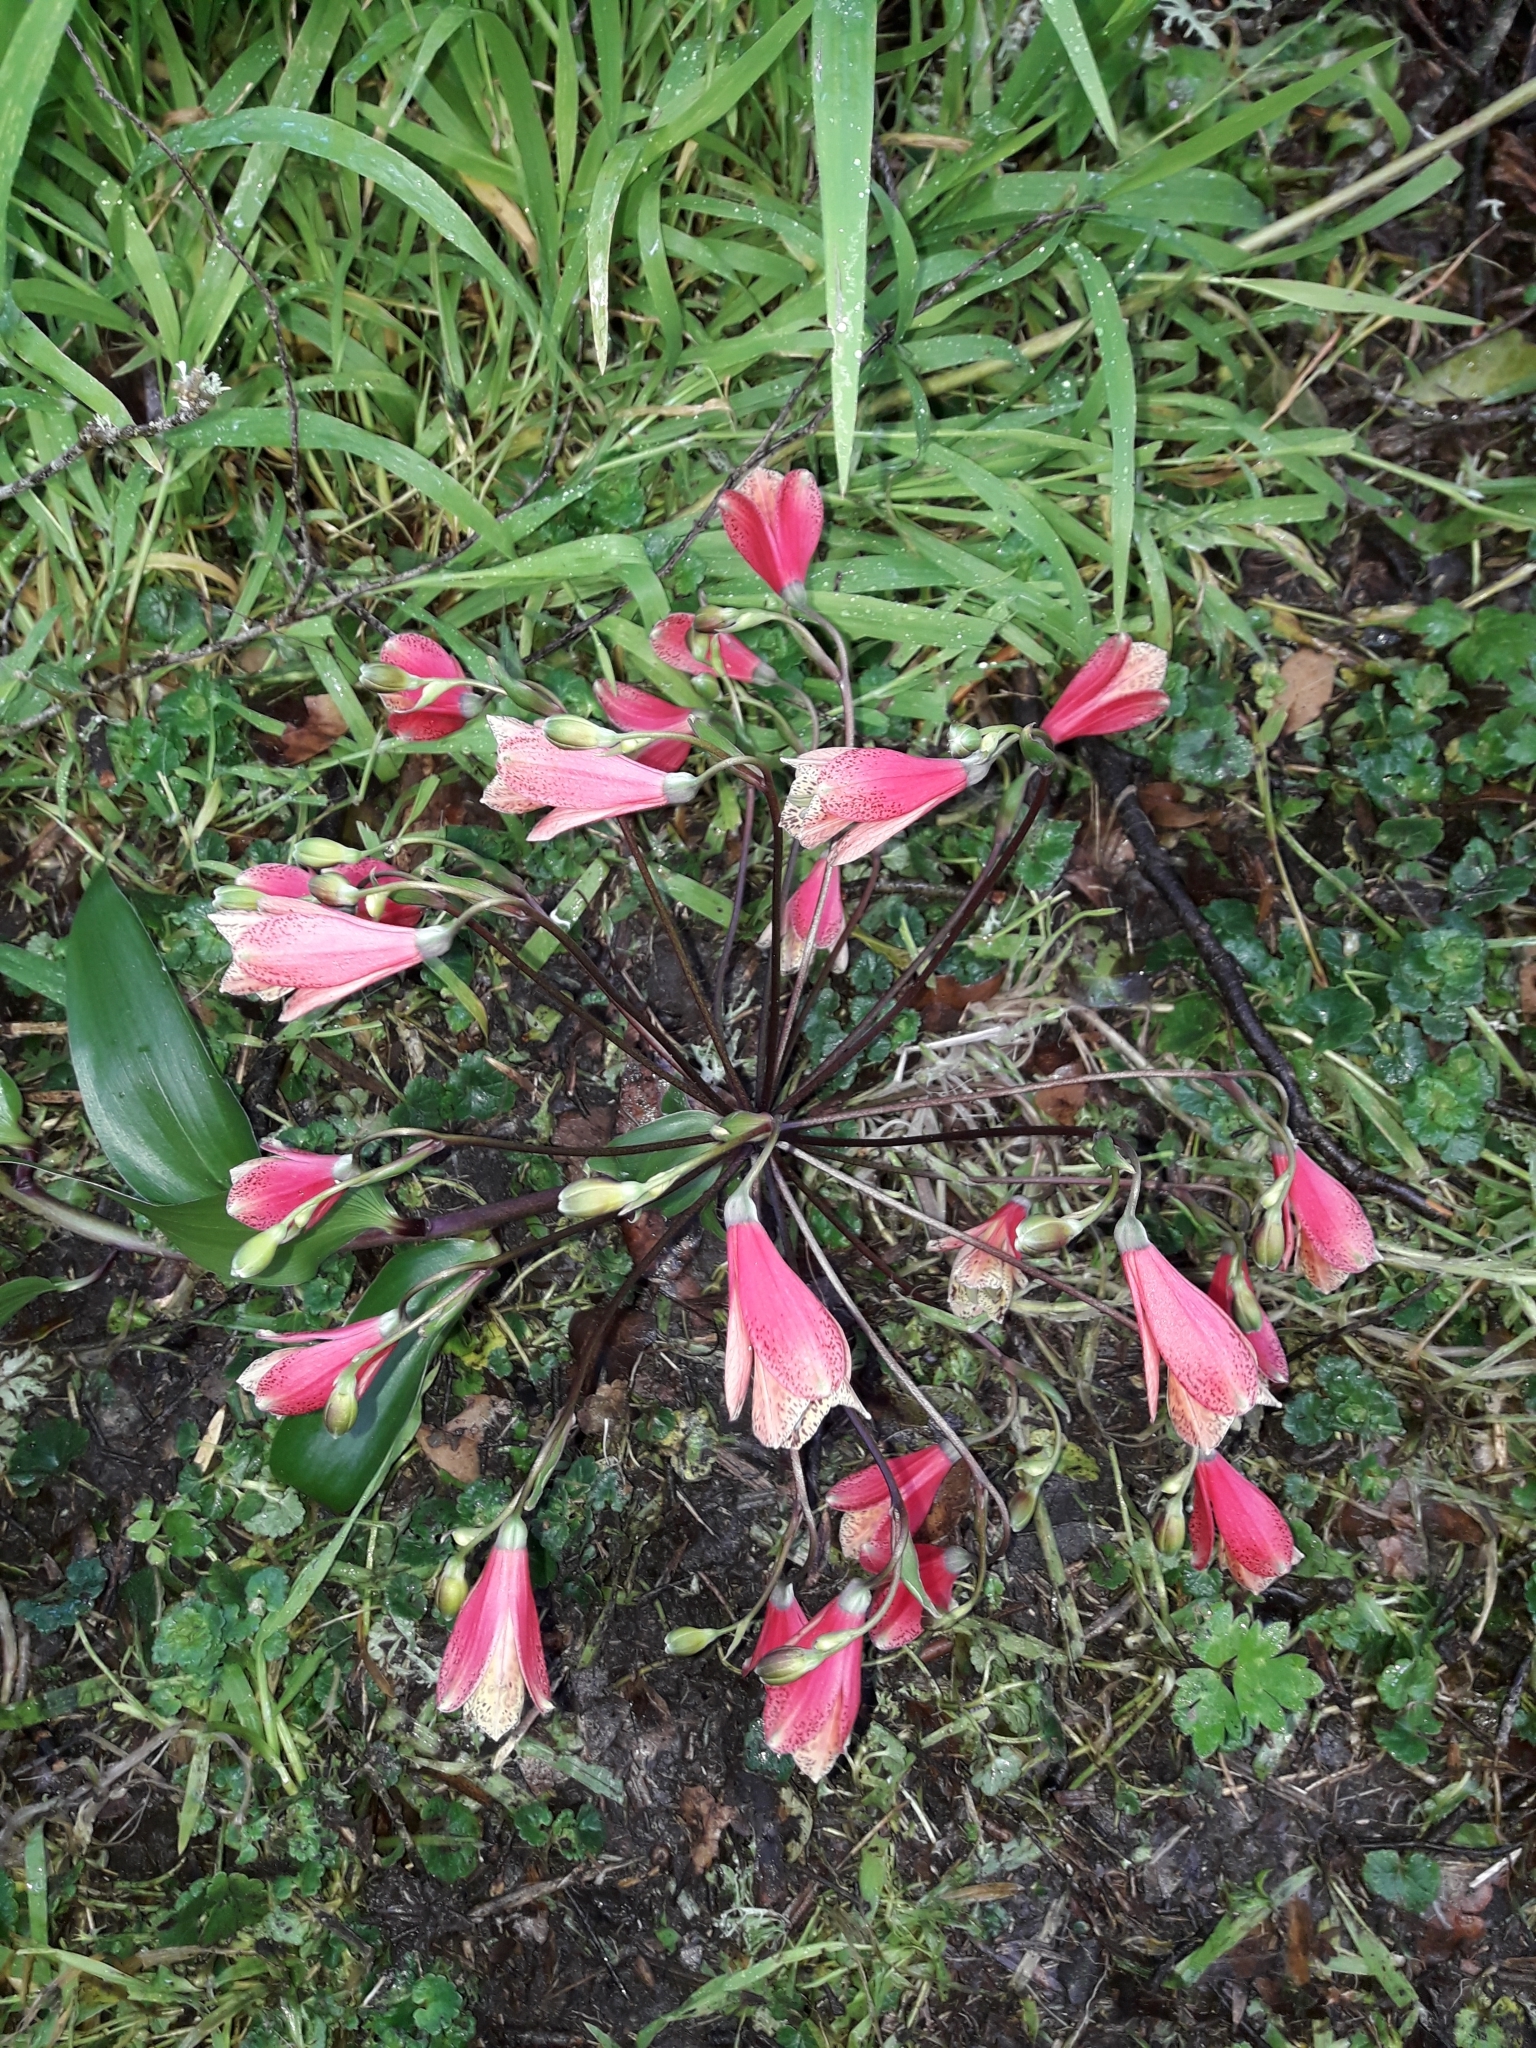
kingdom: Plantae
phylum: Tracheophyta
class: Liliopsida
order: Liliales
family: Alstroemeriaceae
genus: Bomarea
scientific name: Bomarea edulis
